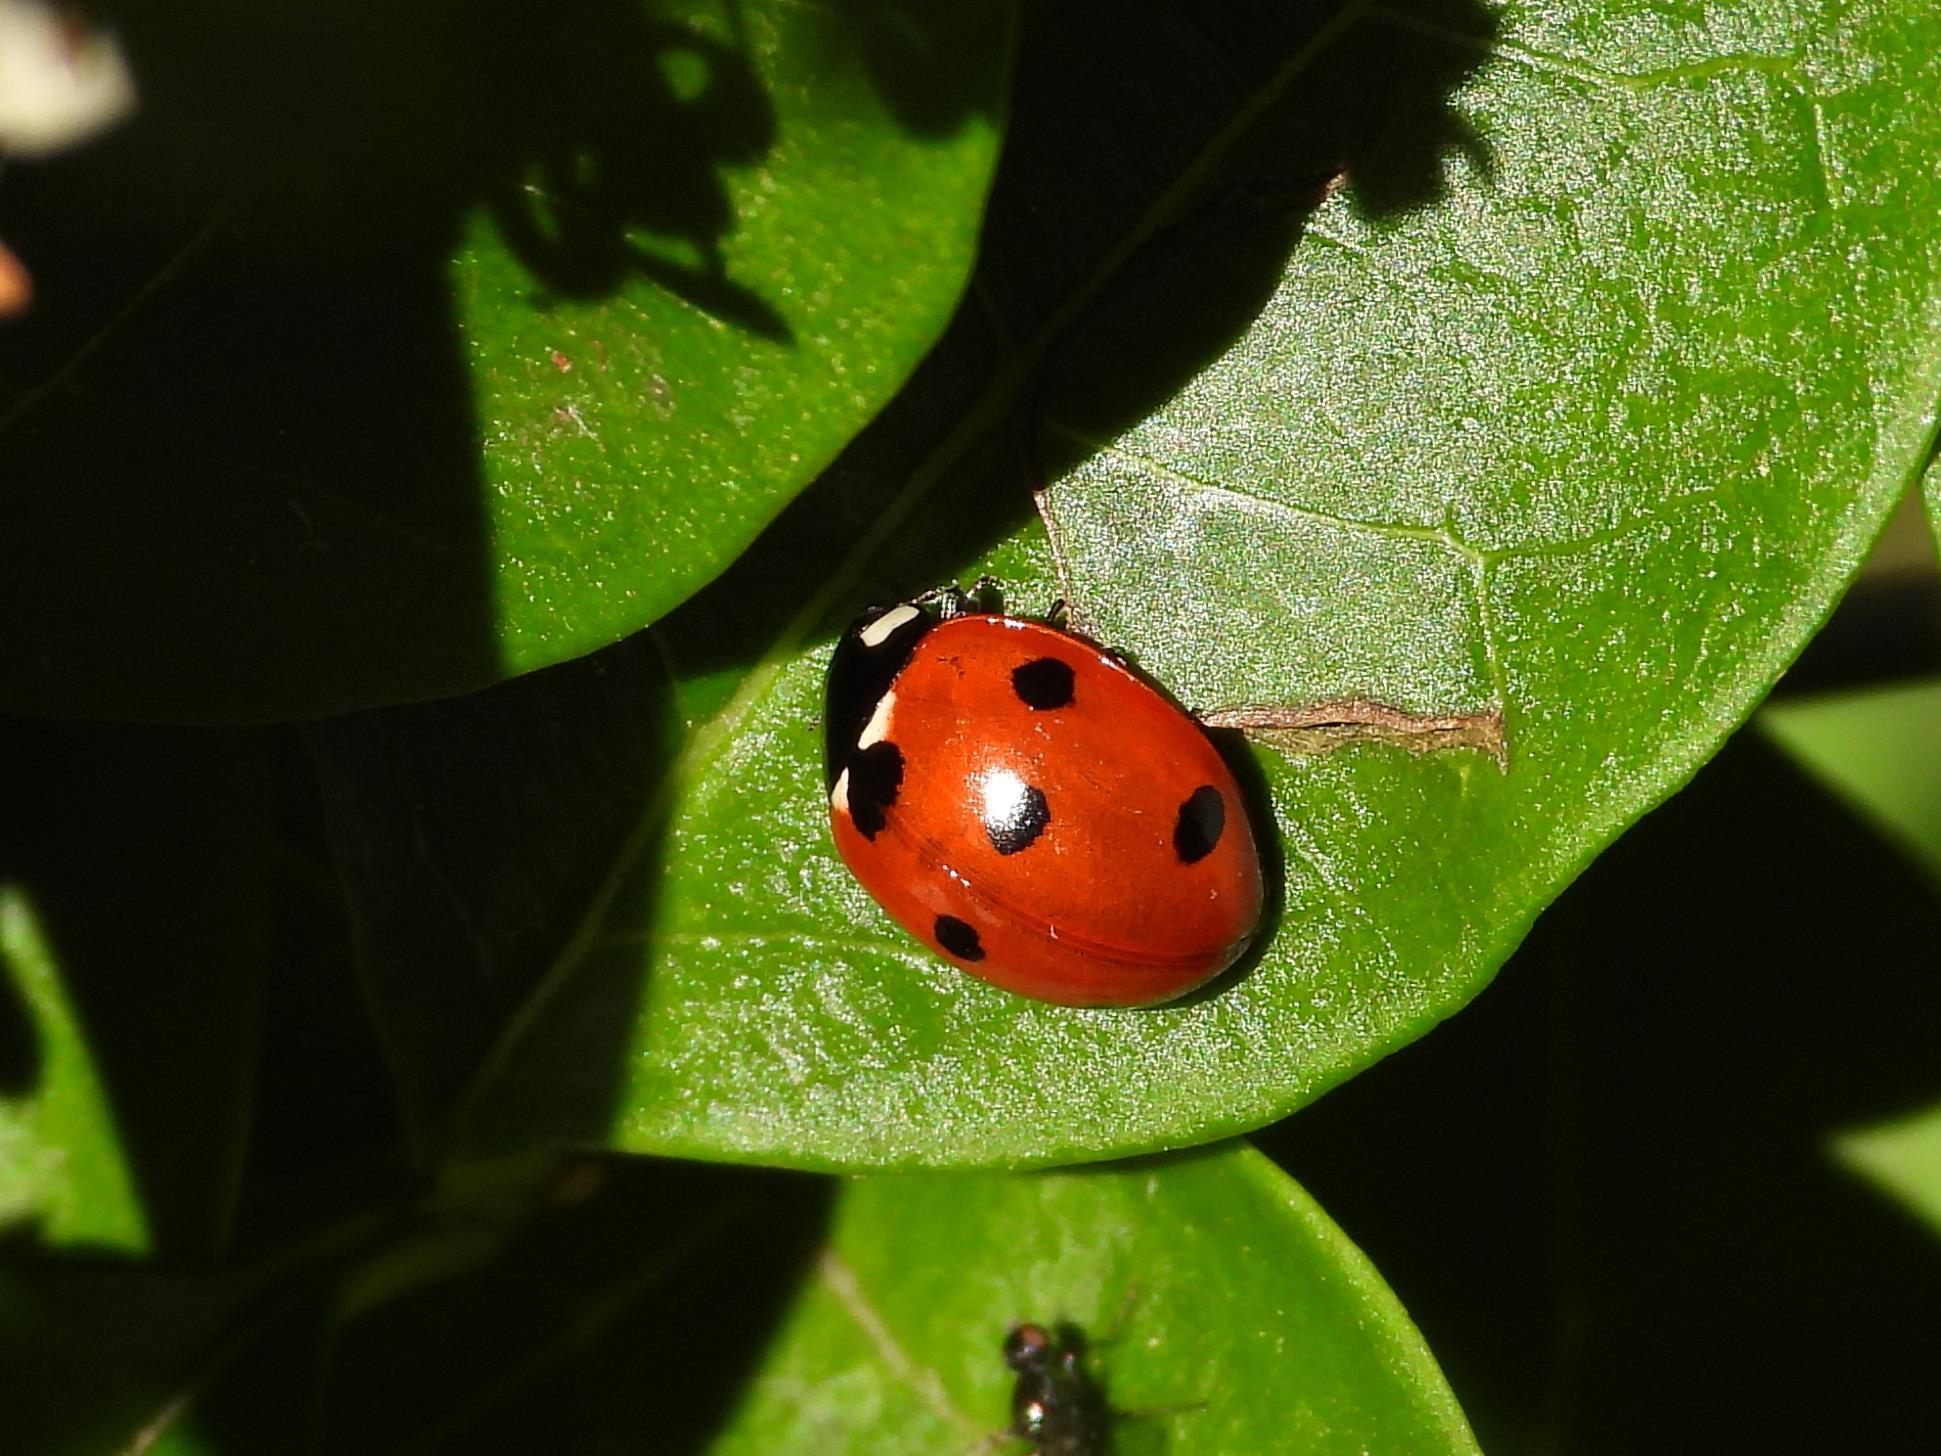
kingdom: Animalia
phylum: Arthropoda
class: Insecta
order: Coleoptera
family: Coccinellidae
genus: Coccinella
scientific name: Coccinella septempunctata
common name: Sevenspotted lady beetle
